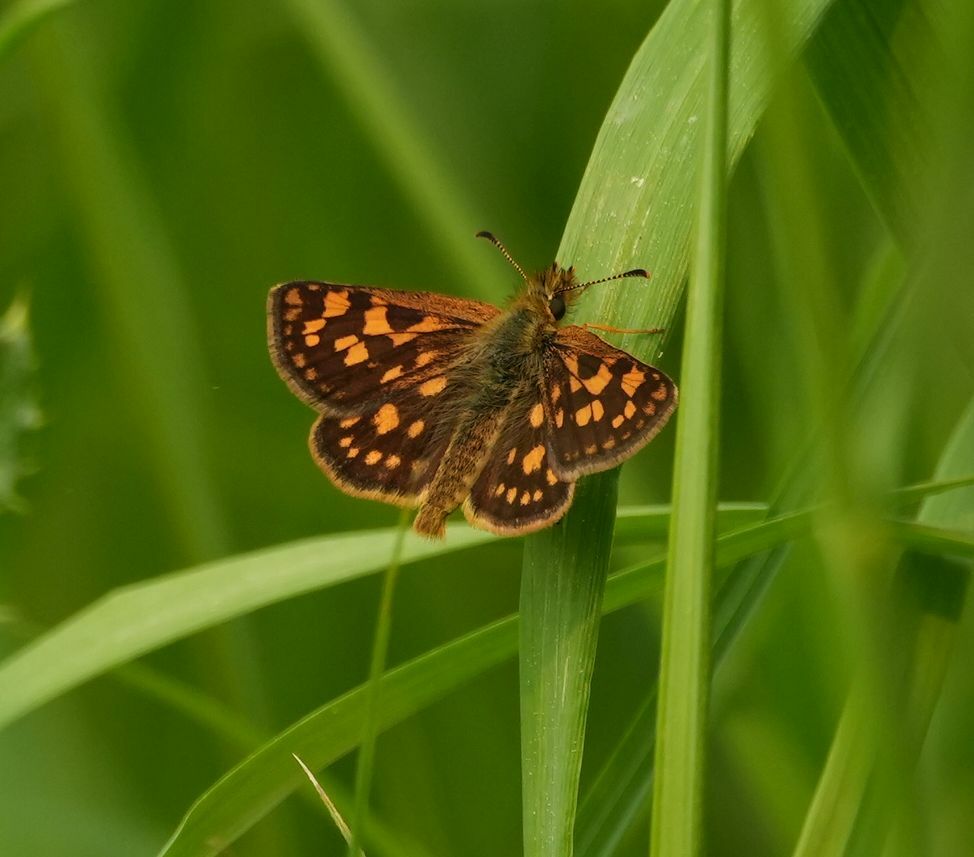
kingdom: Animalia
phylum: Arthropoda
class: Insecta
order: Lepidoptera
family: Hesperiidae
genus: Carterocephalus
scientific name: Carterocephalus mandan
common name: Arctic skipperling
